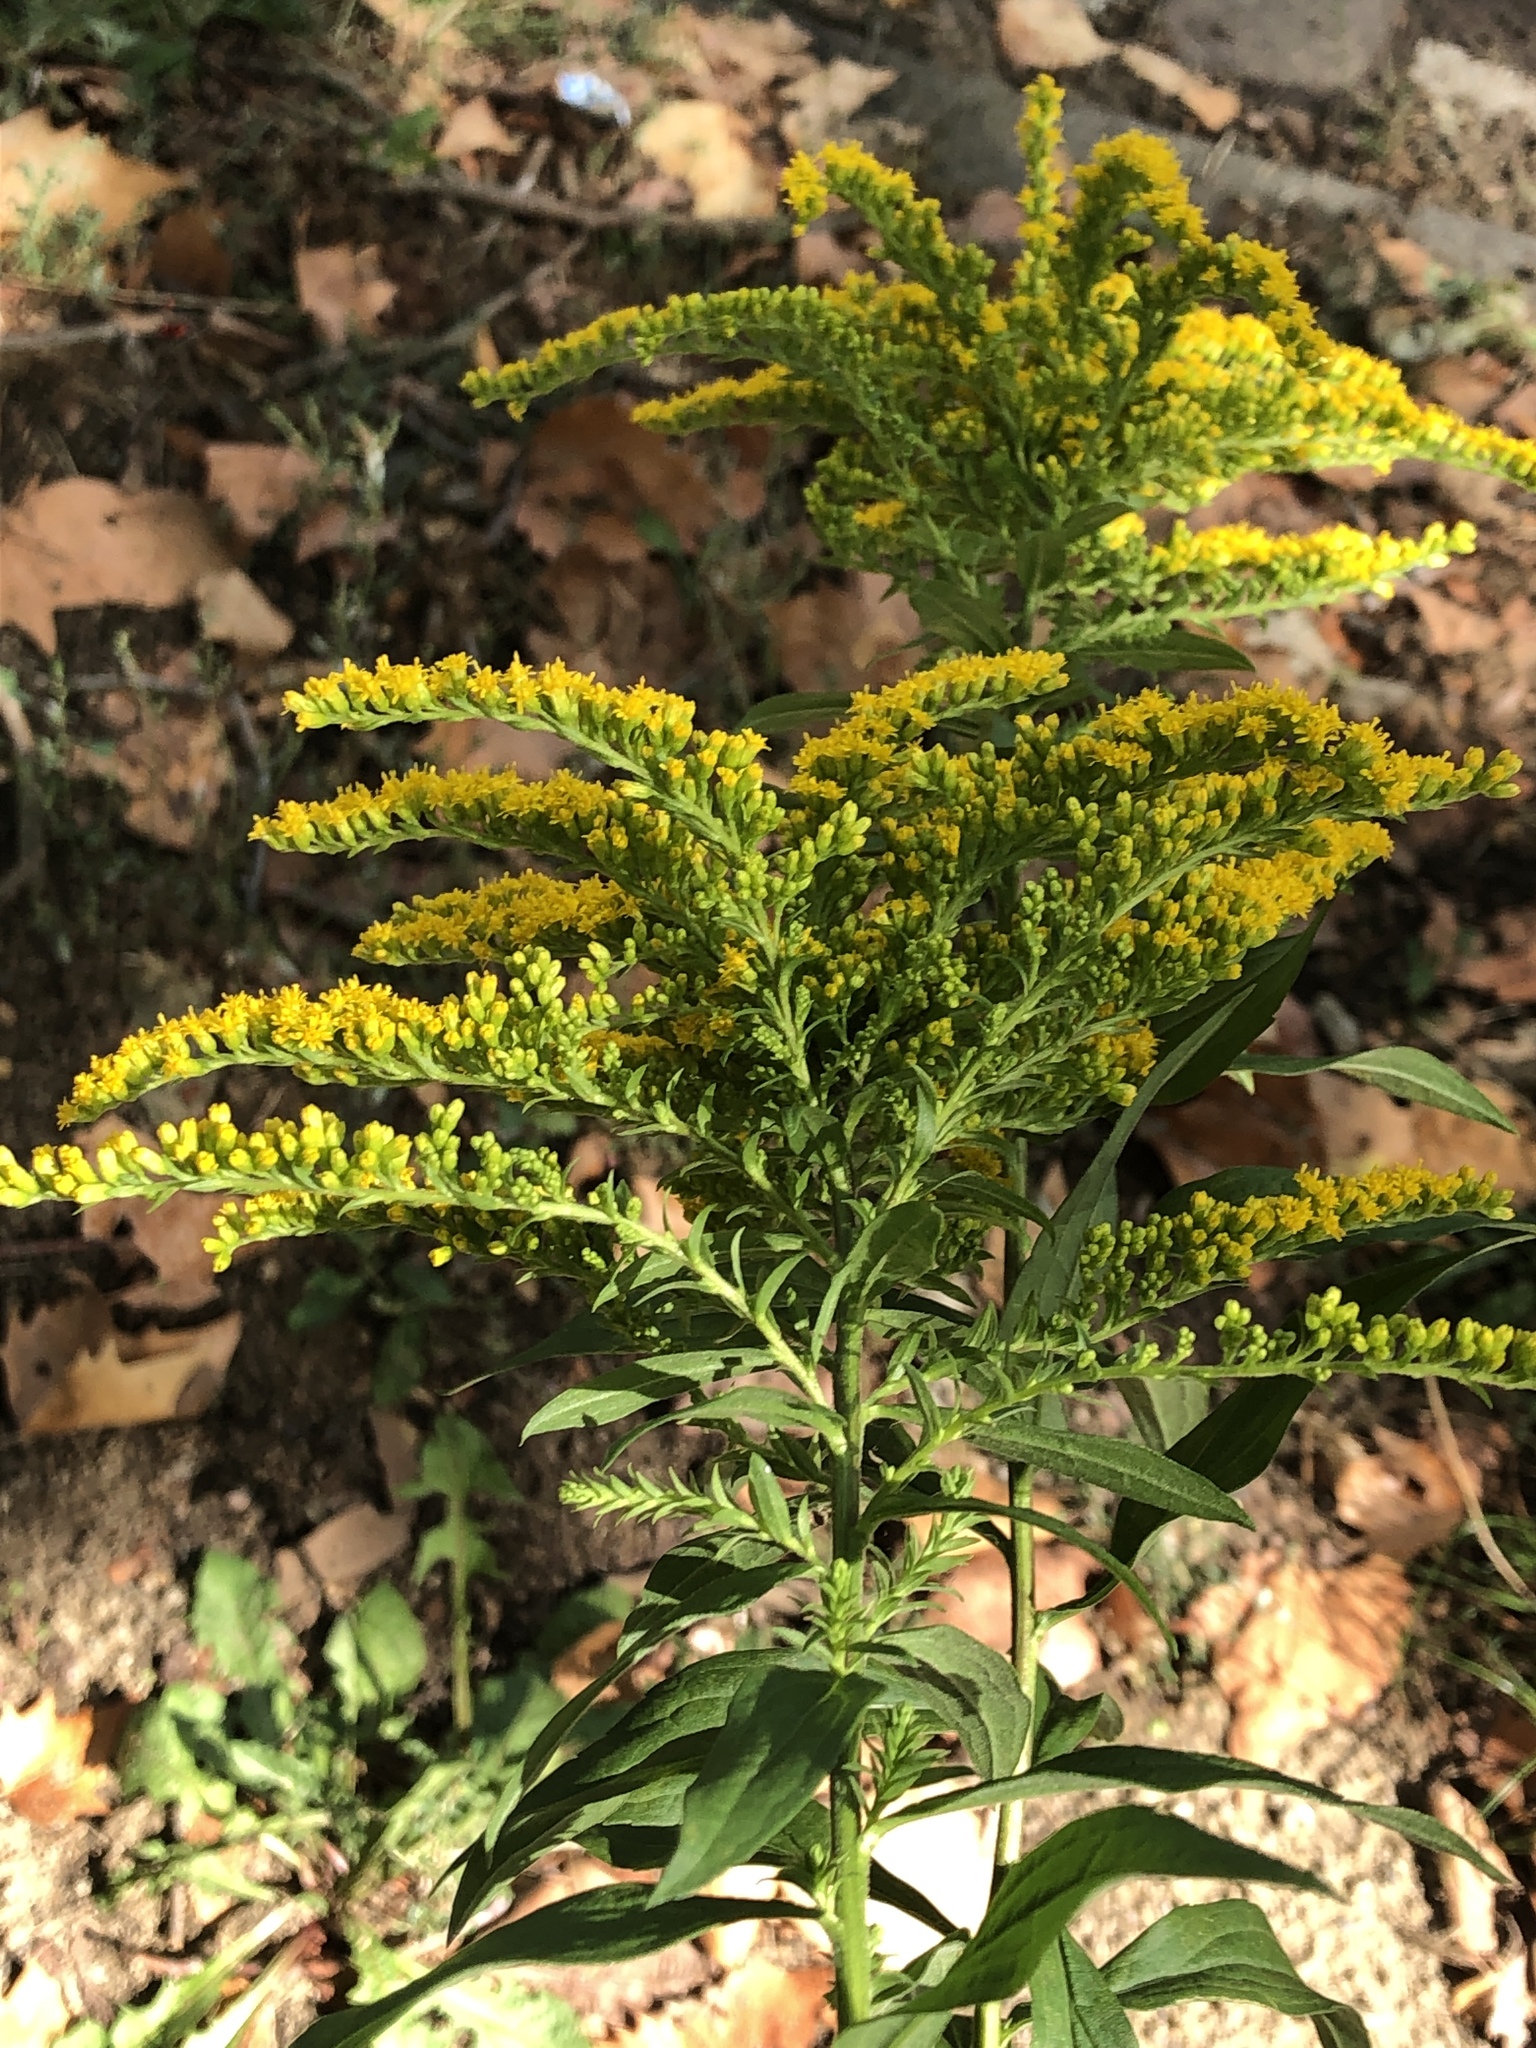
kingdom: Plantae
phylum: Tracheophyta
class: Magnoliopsida
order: Asterales
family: Asteraceae
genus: Solidago
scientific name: Solidago canadensis
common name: Canada goldenrod
